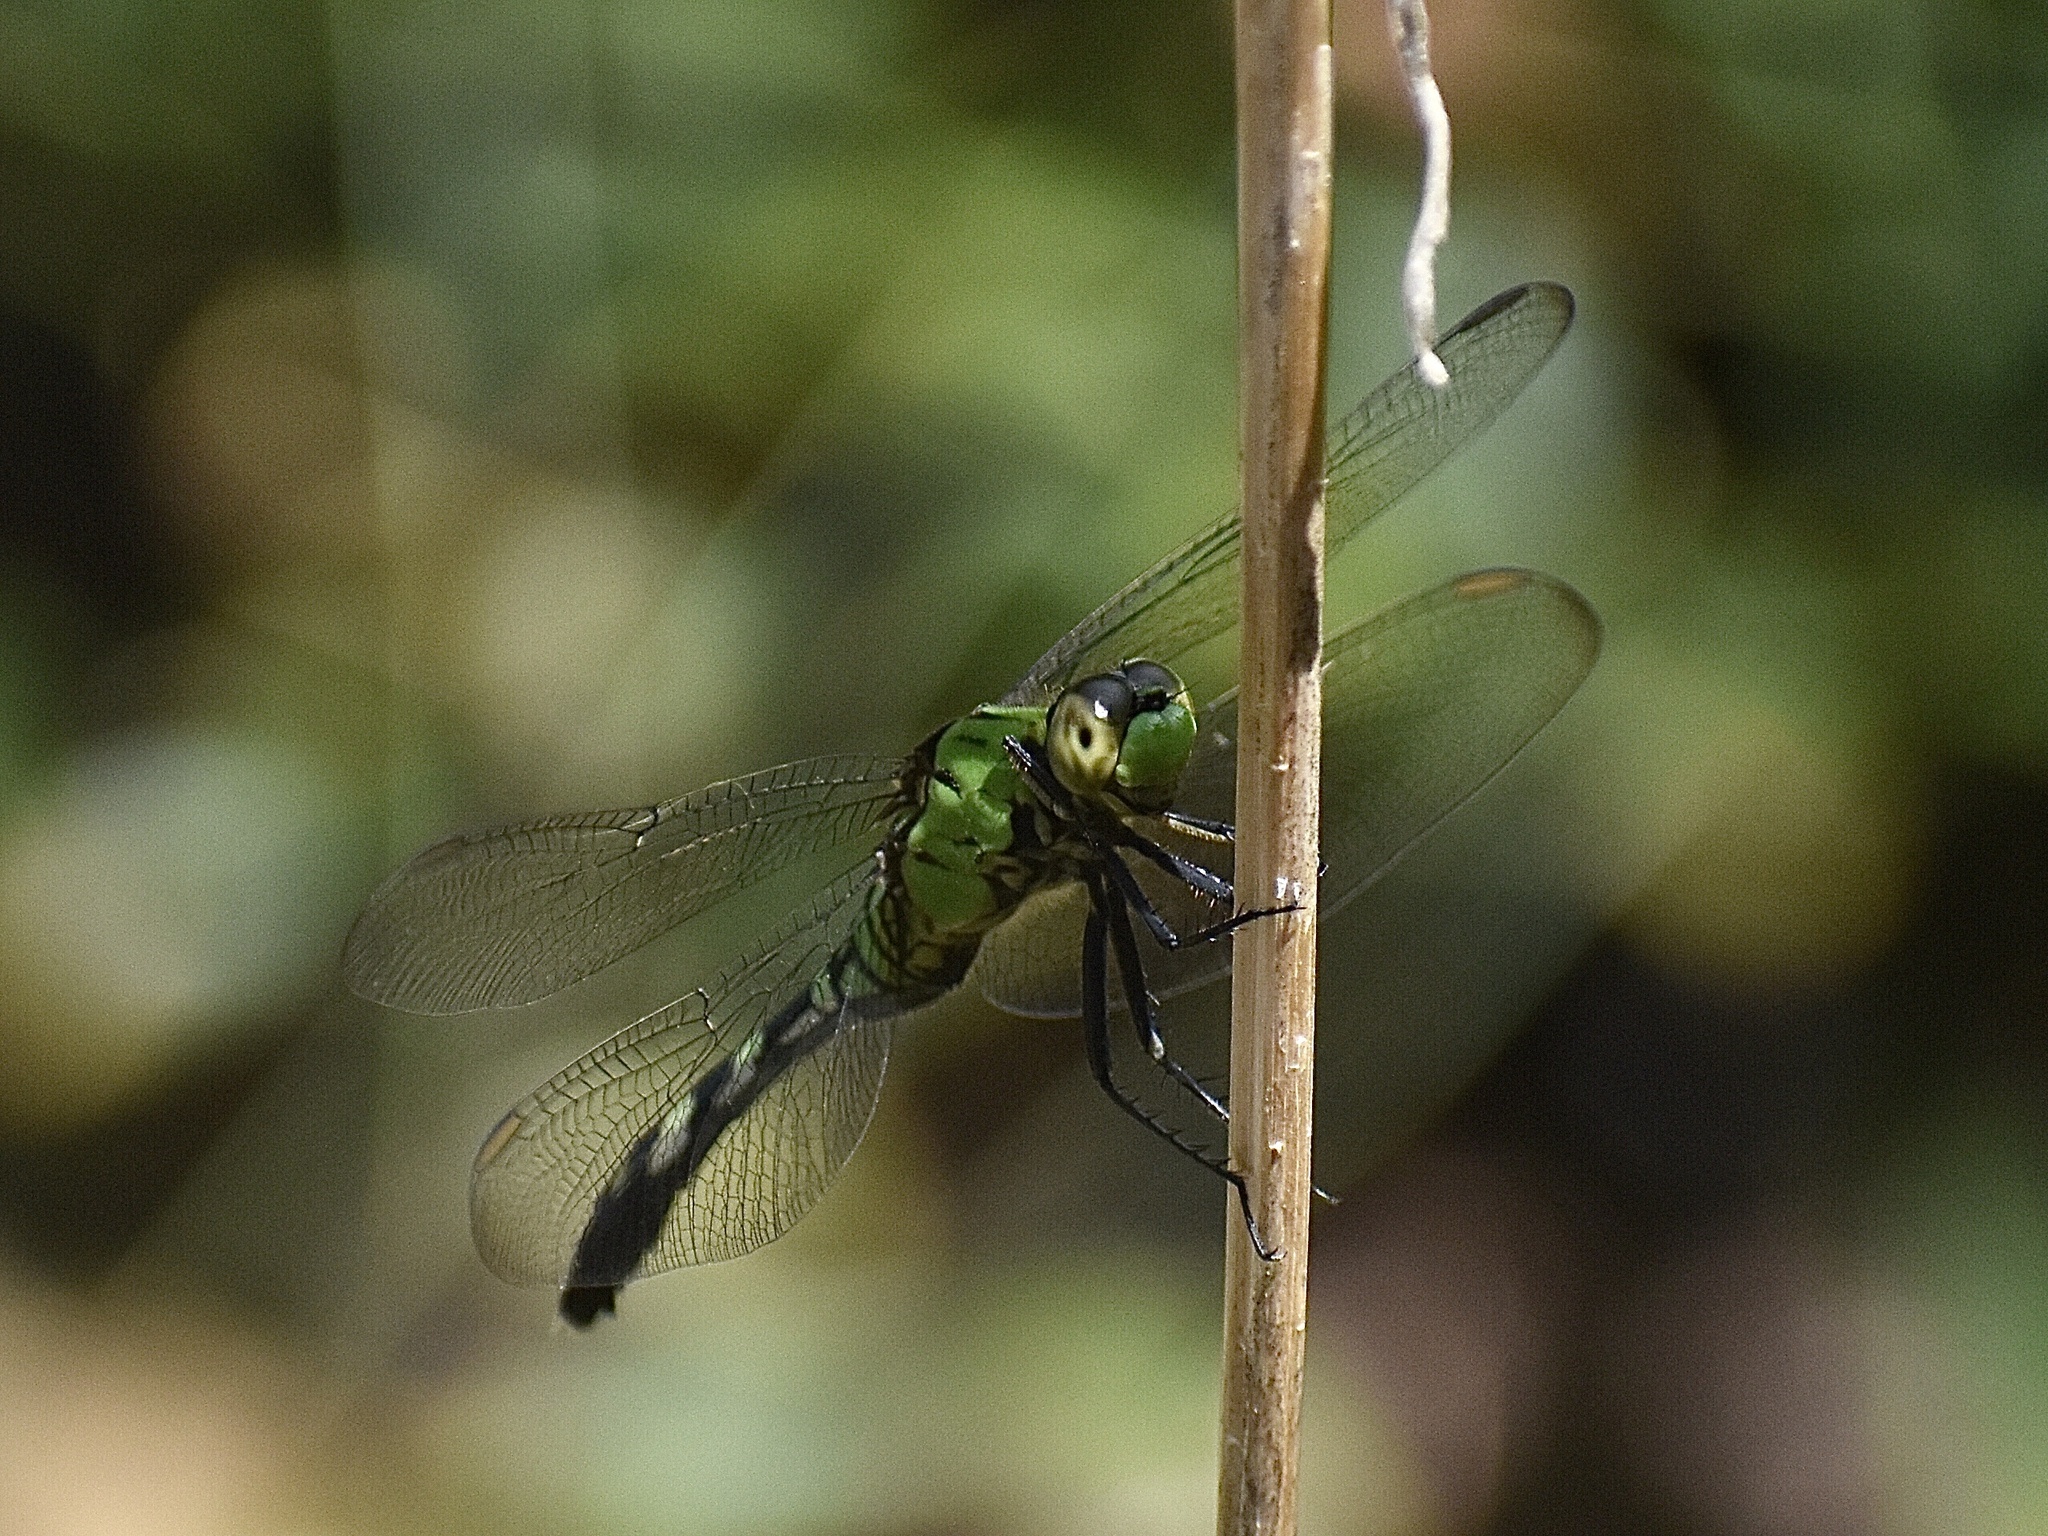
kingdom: Animalia
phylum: Arthropoda
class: Insecta
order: Odonata
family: Libellulidae
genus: Erythemis
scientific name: Erythemis simplicicollis
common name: Eastern pondhawk
